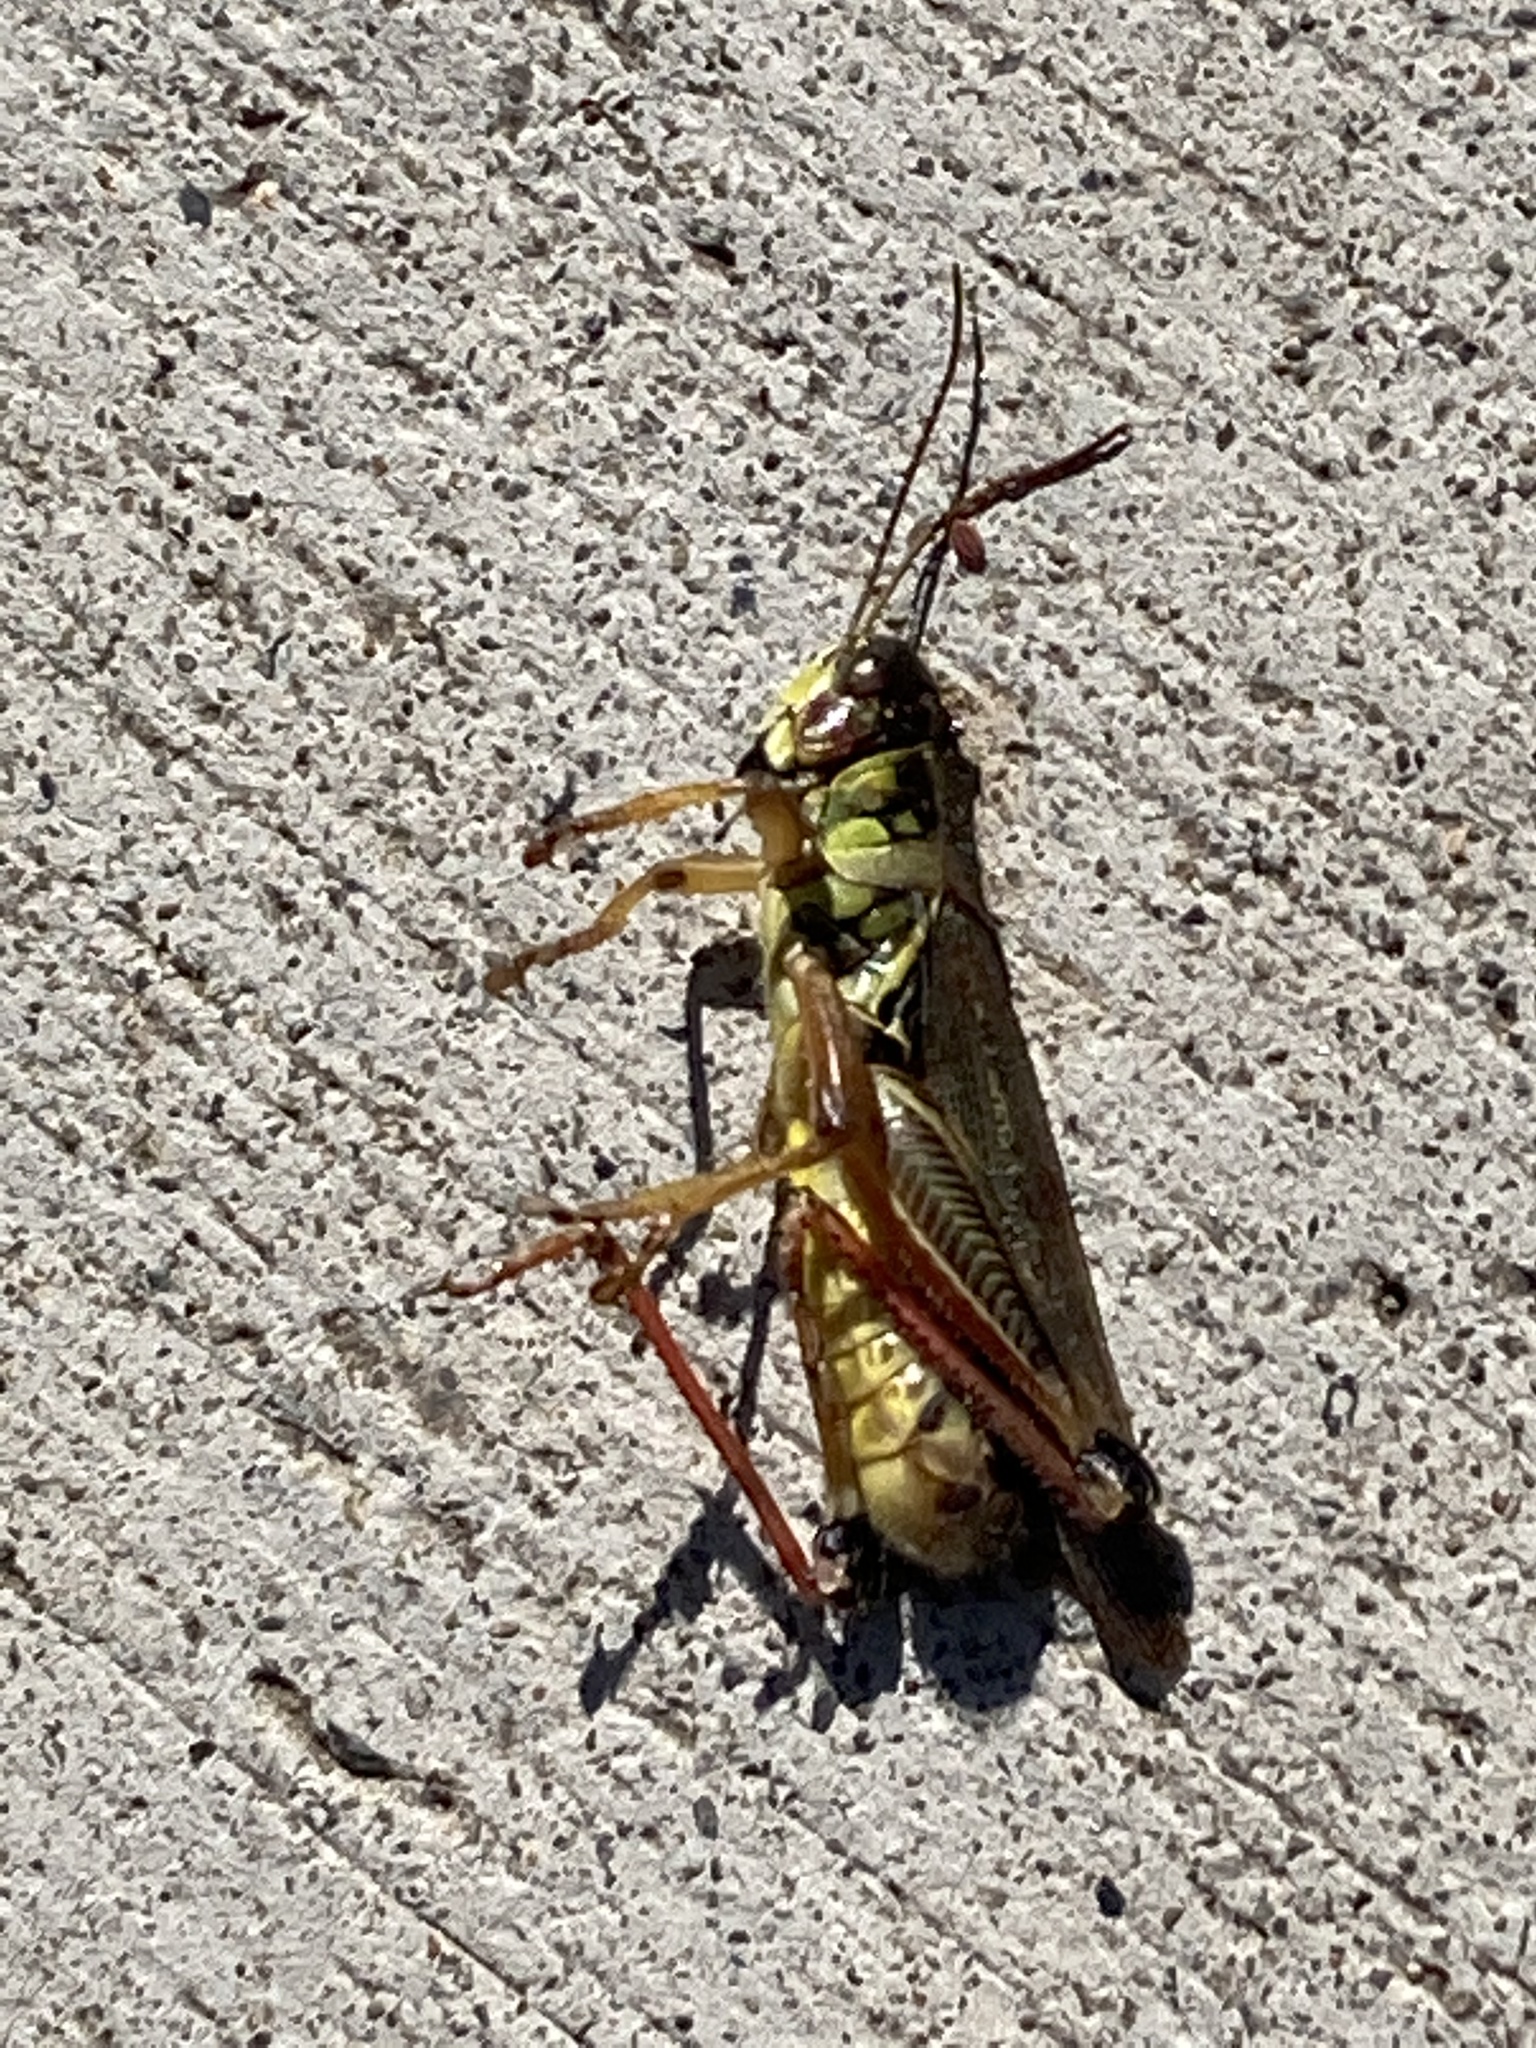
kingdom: Animalia
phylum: Arthropoda
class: Insecta
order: Orthoptera
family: Acrididae
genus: Melanoplus
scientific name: Melanoplus femurrubrum
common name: Red-legged grasshopper
